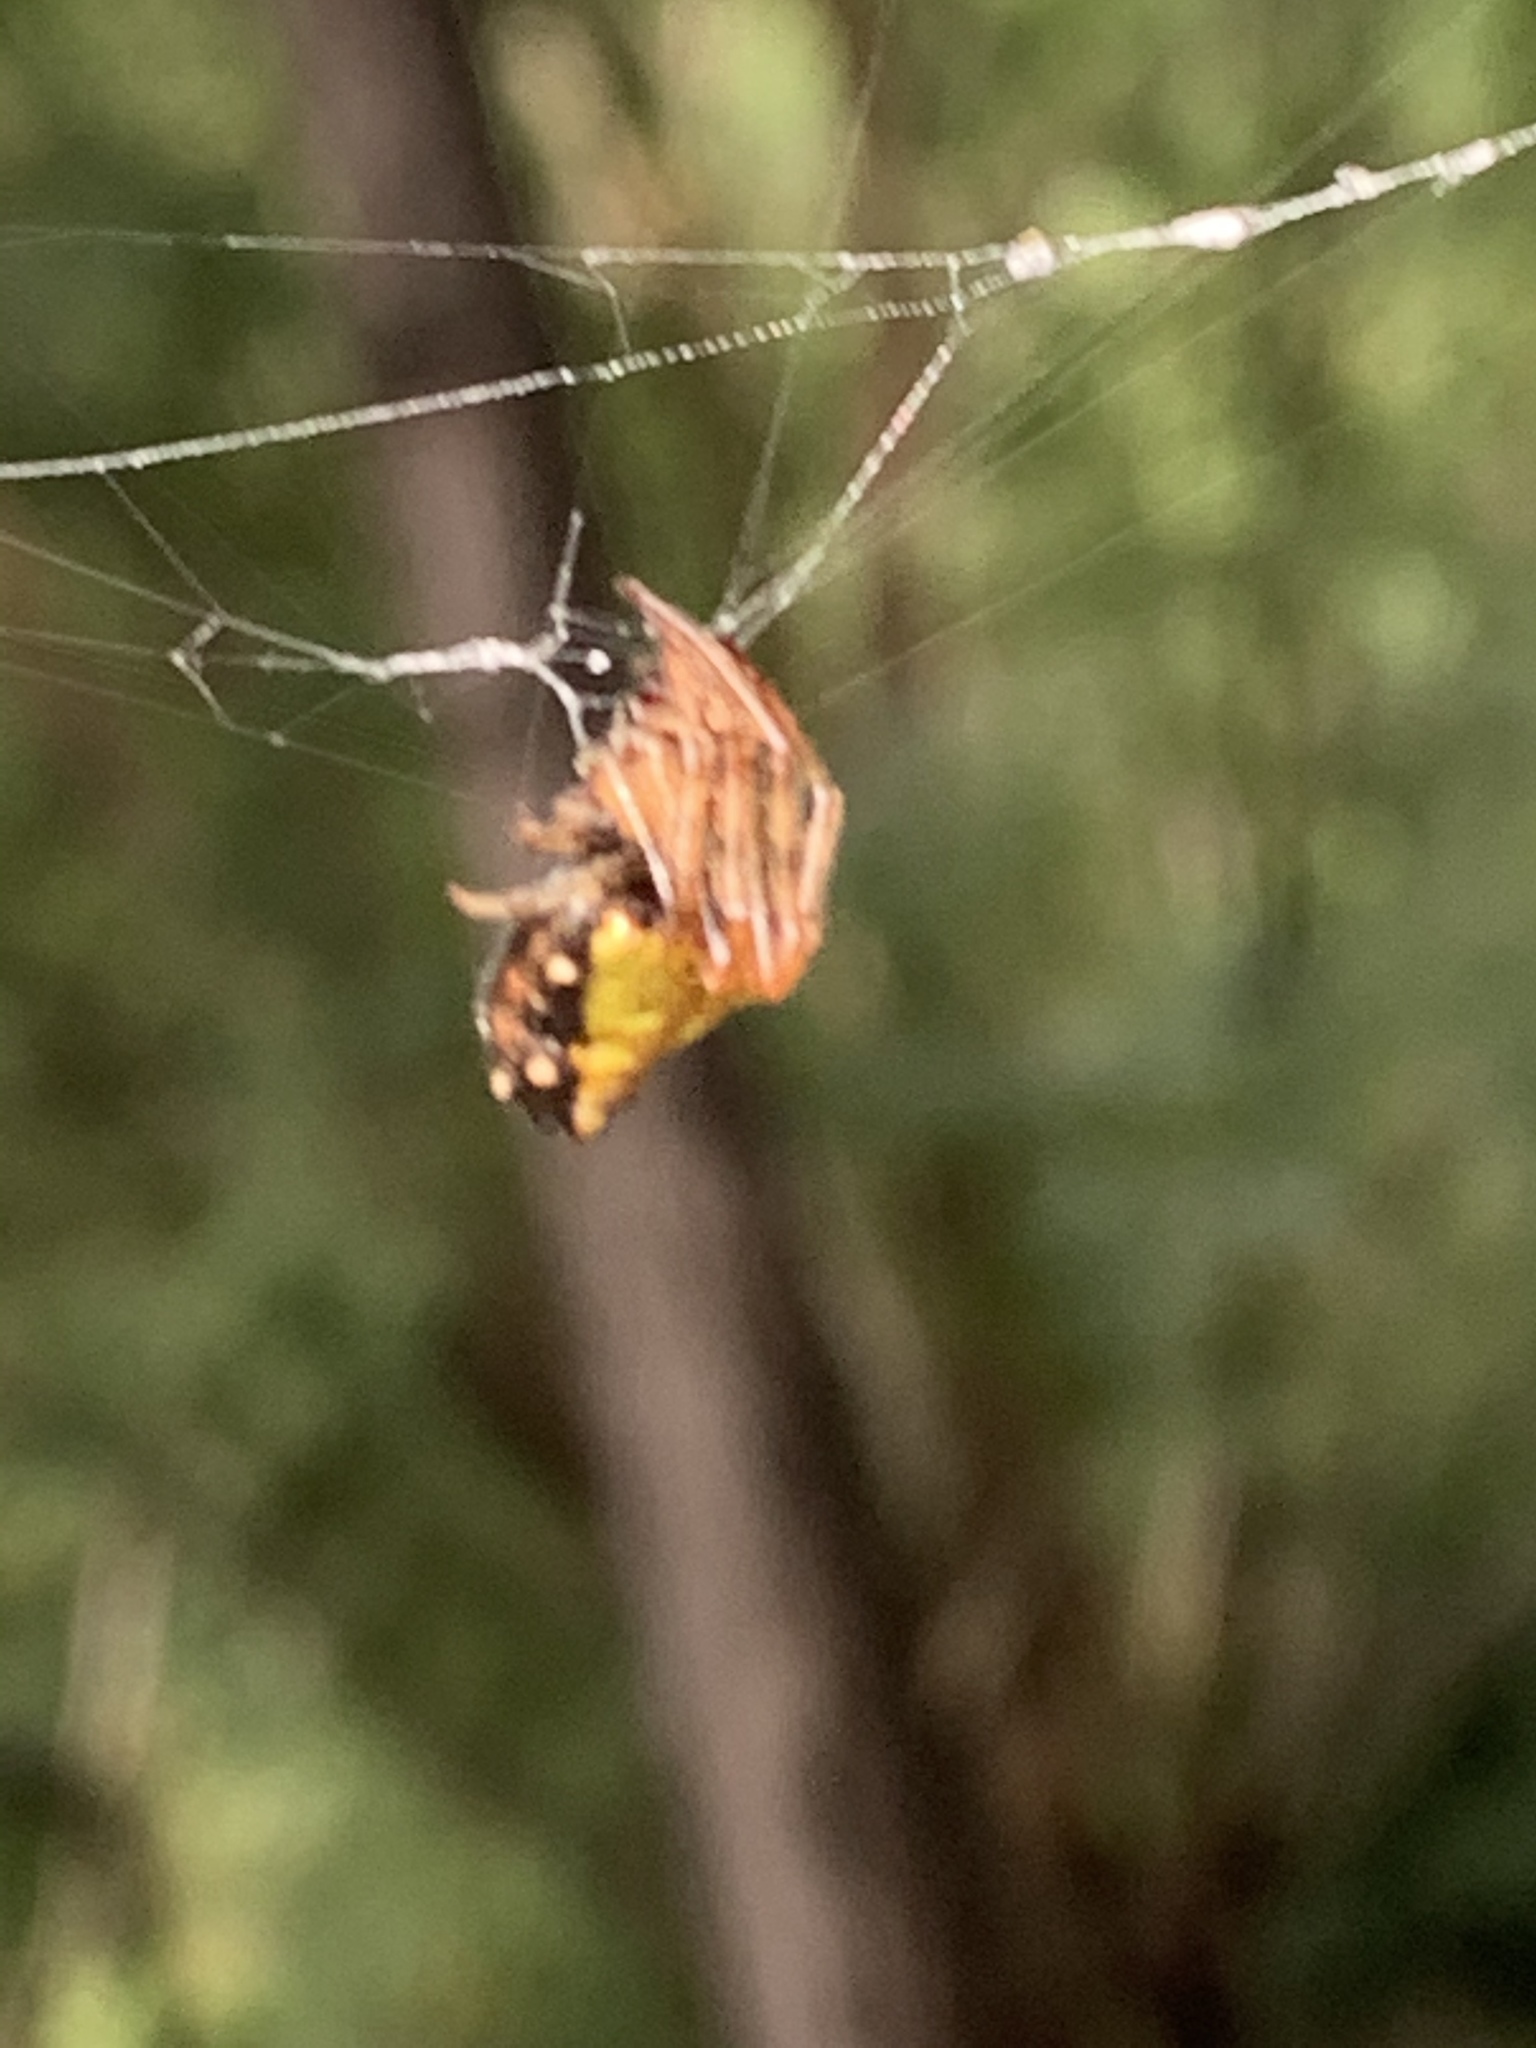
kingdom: Animalia
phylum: Arthropoda
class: Arachnida
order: Araneae
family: Araneidae
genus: Verrucosa
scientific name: Verrucosa arenata
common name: Orb weavers
